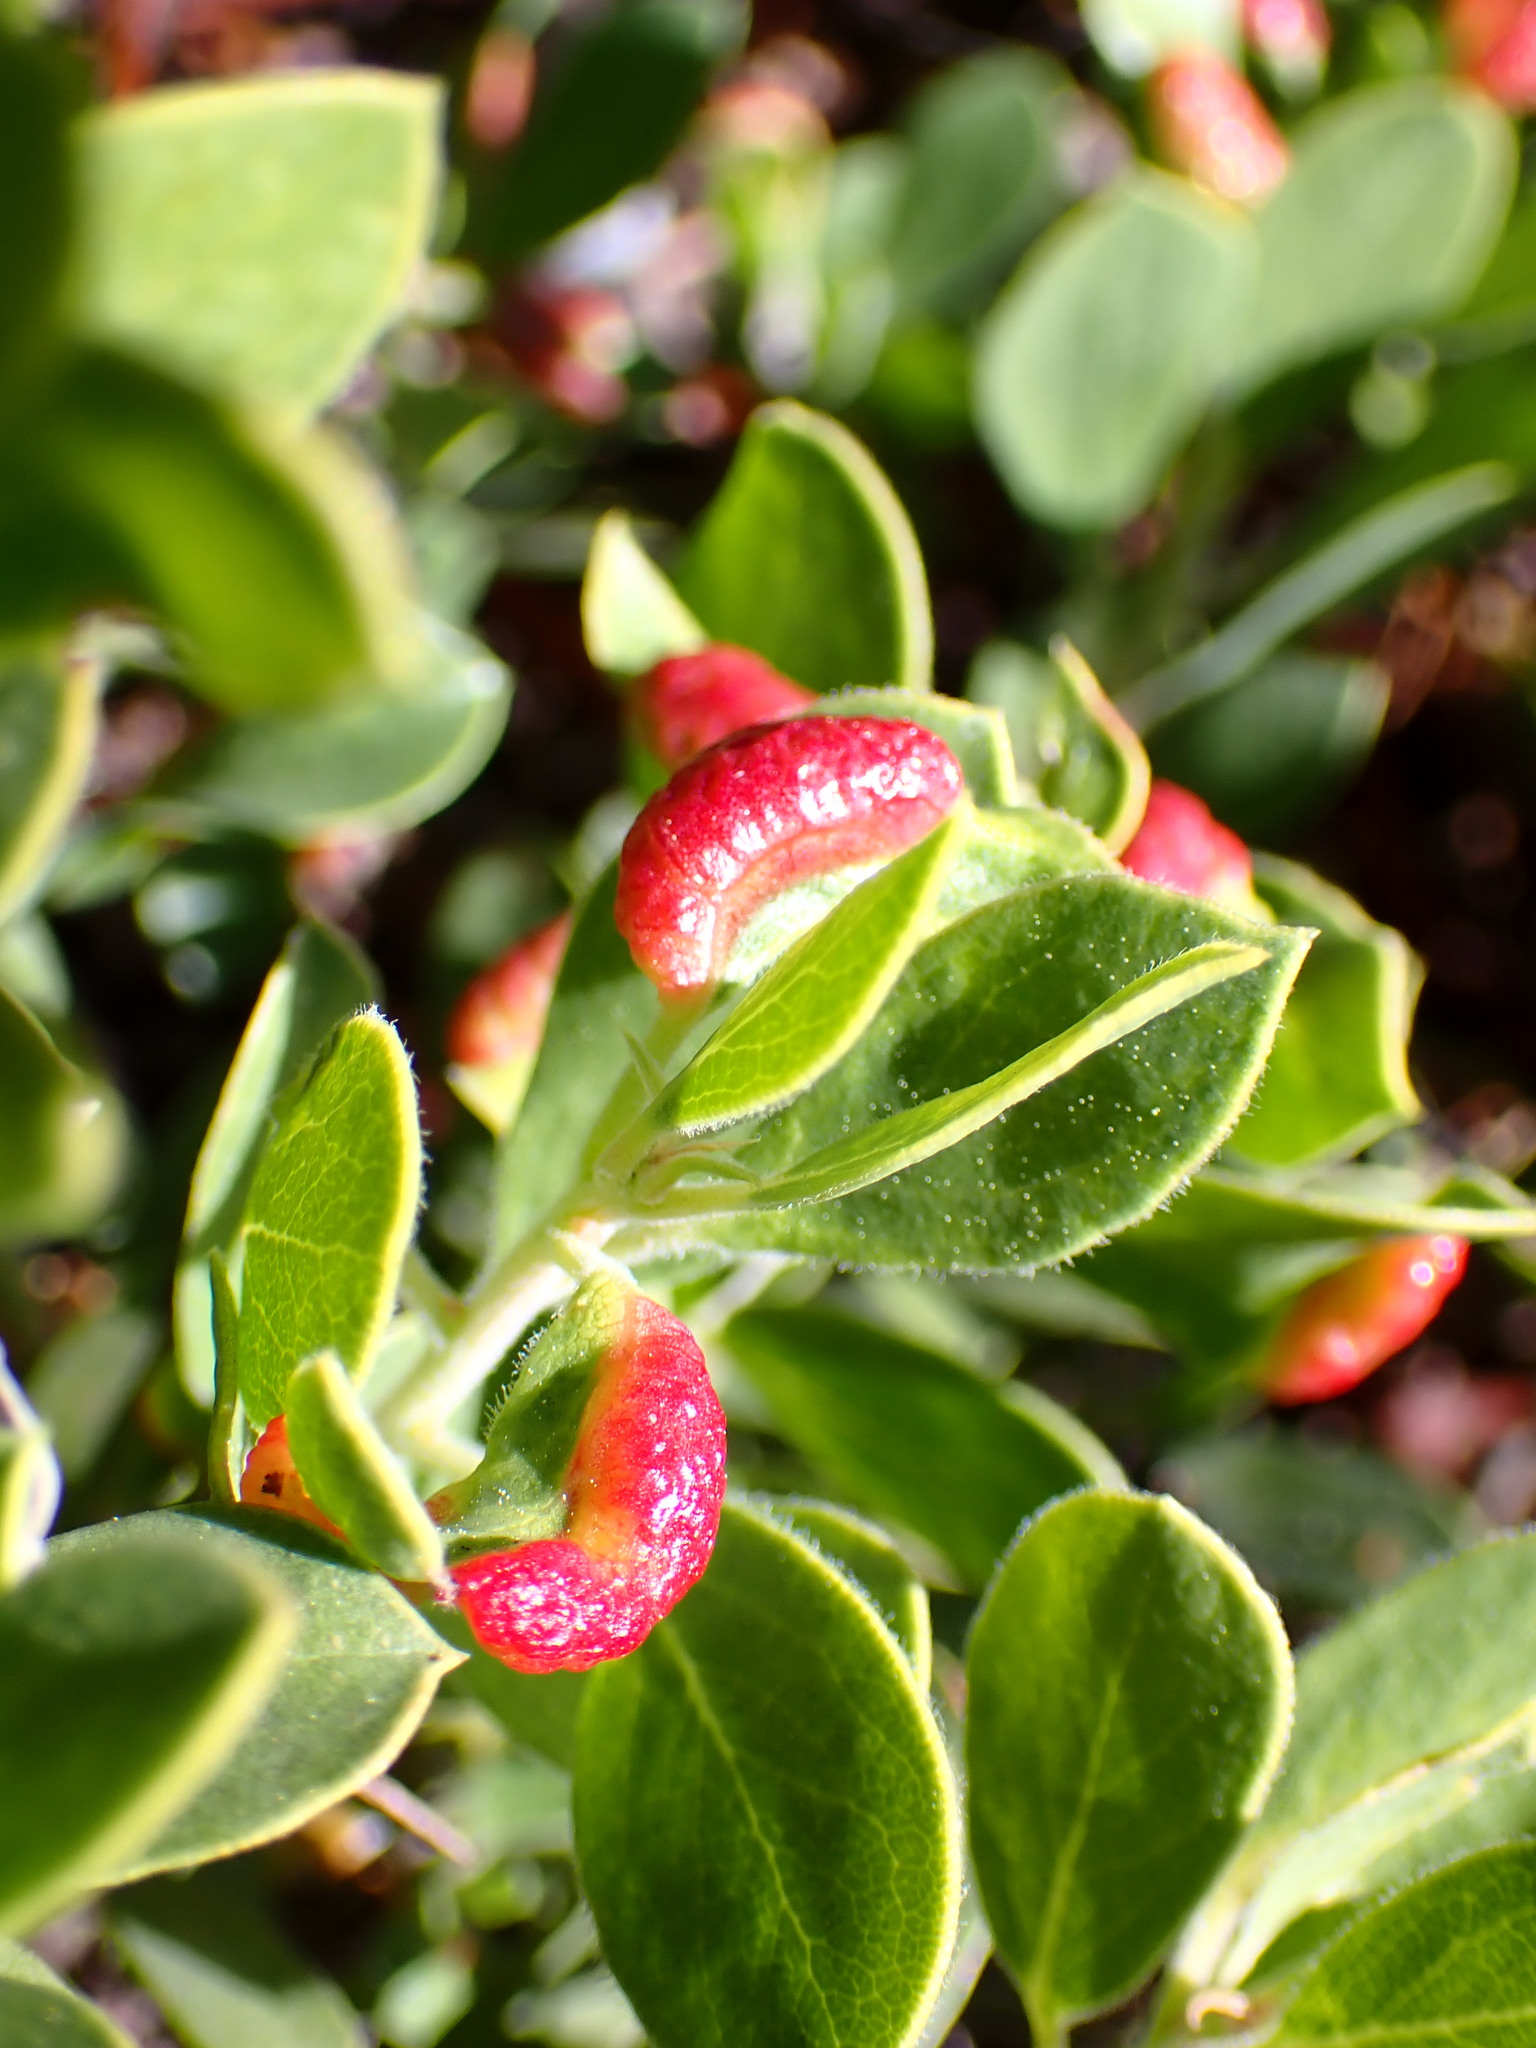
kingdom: Animalia
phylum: Arthropoda
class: Insecta
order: Hemiptera
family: Aphididae
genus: Tamalia
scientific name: Tamalia coweni
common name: Manzanita leafgall aphid
